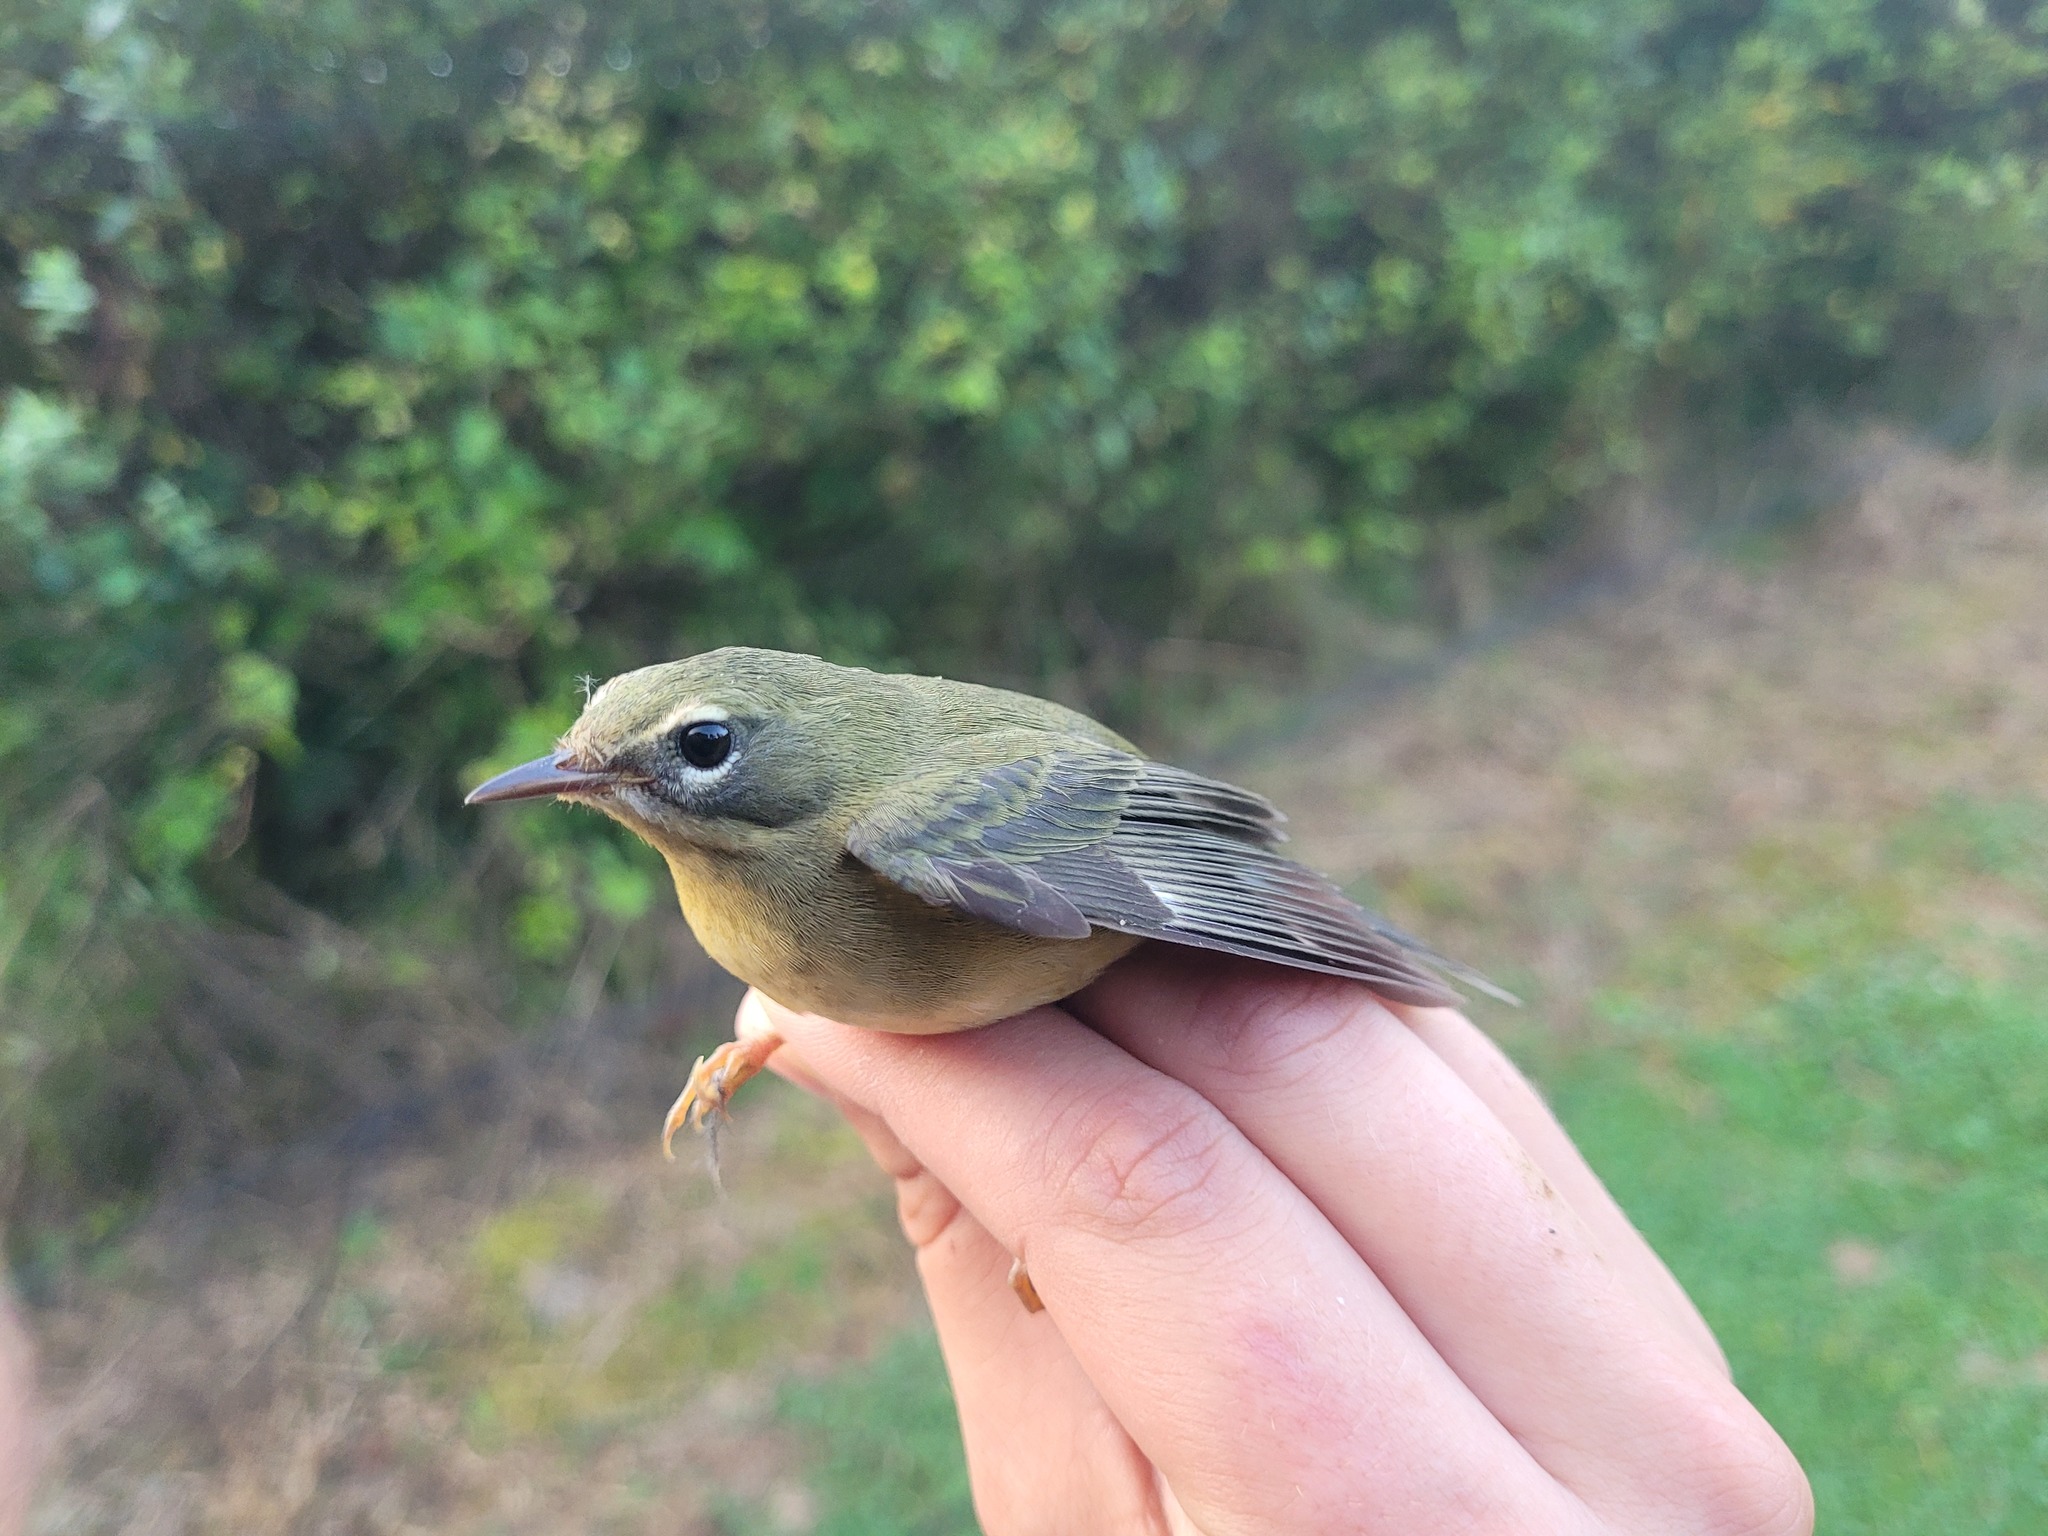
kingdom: Animalia
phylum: Chordata
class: Aves
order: Passeriformes
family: Parulidae
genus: Setophaga
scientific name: Setophaga caerulescens
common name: Black-throated blue warbler
